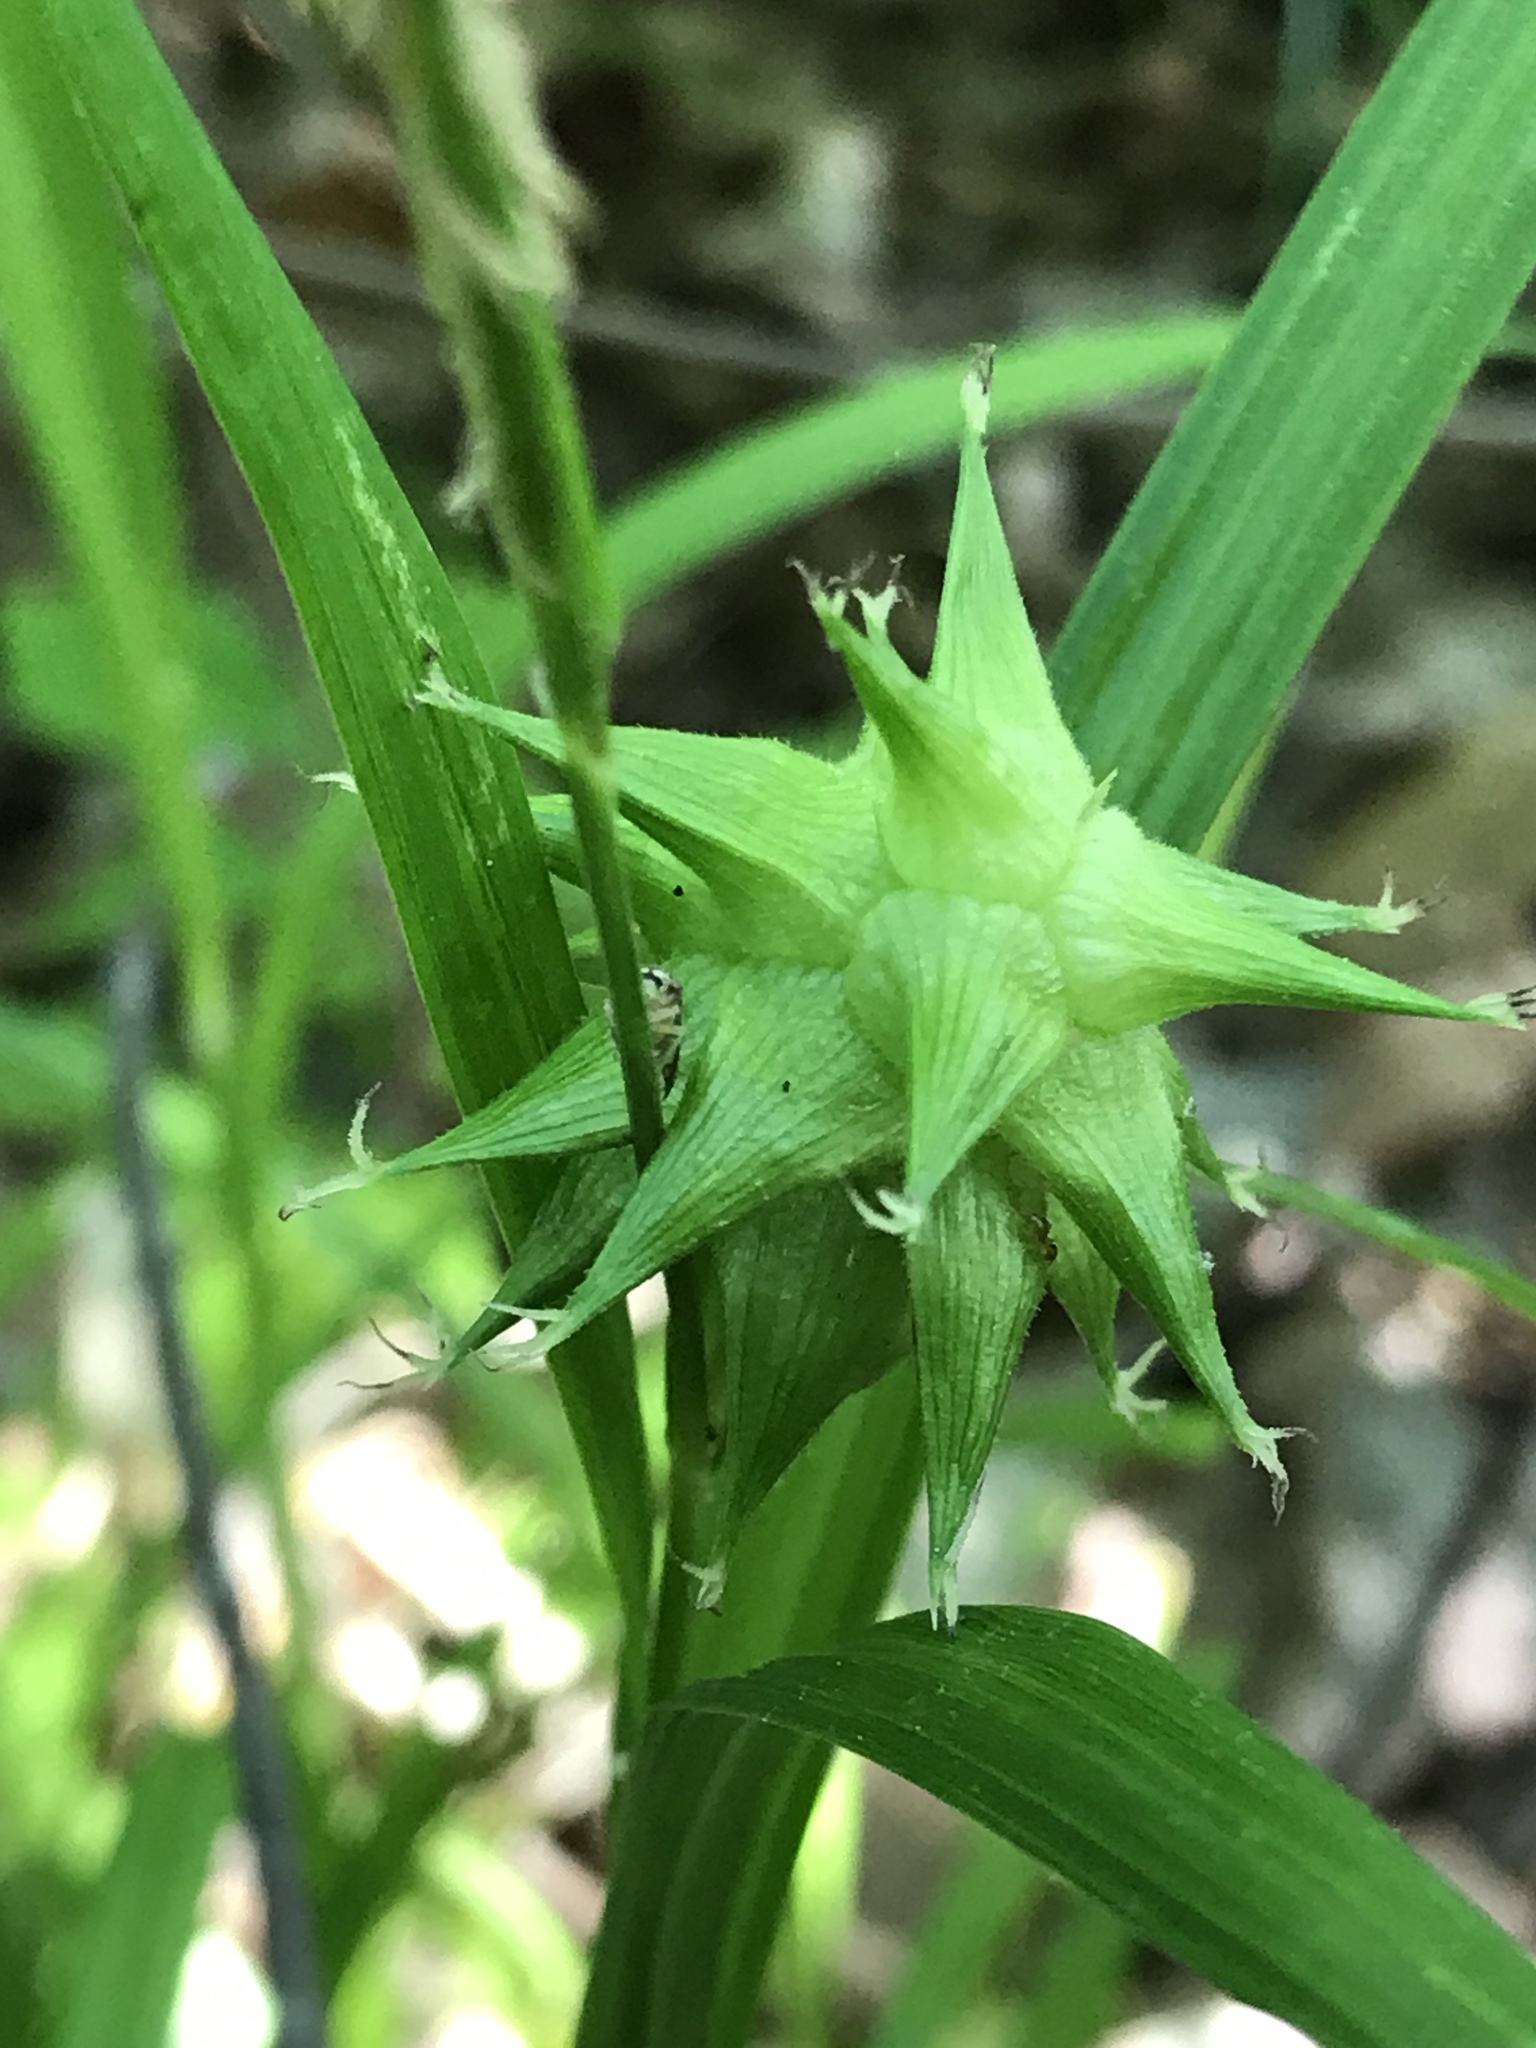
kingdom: Plantae
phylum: Tracheophyta
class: Liliopsida
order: Poales
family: Cyperaceae
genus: Carex
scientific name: Carex grayi
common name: Asa gray's sedge
